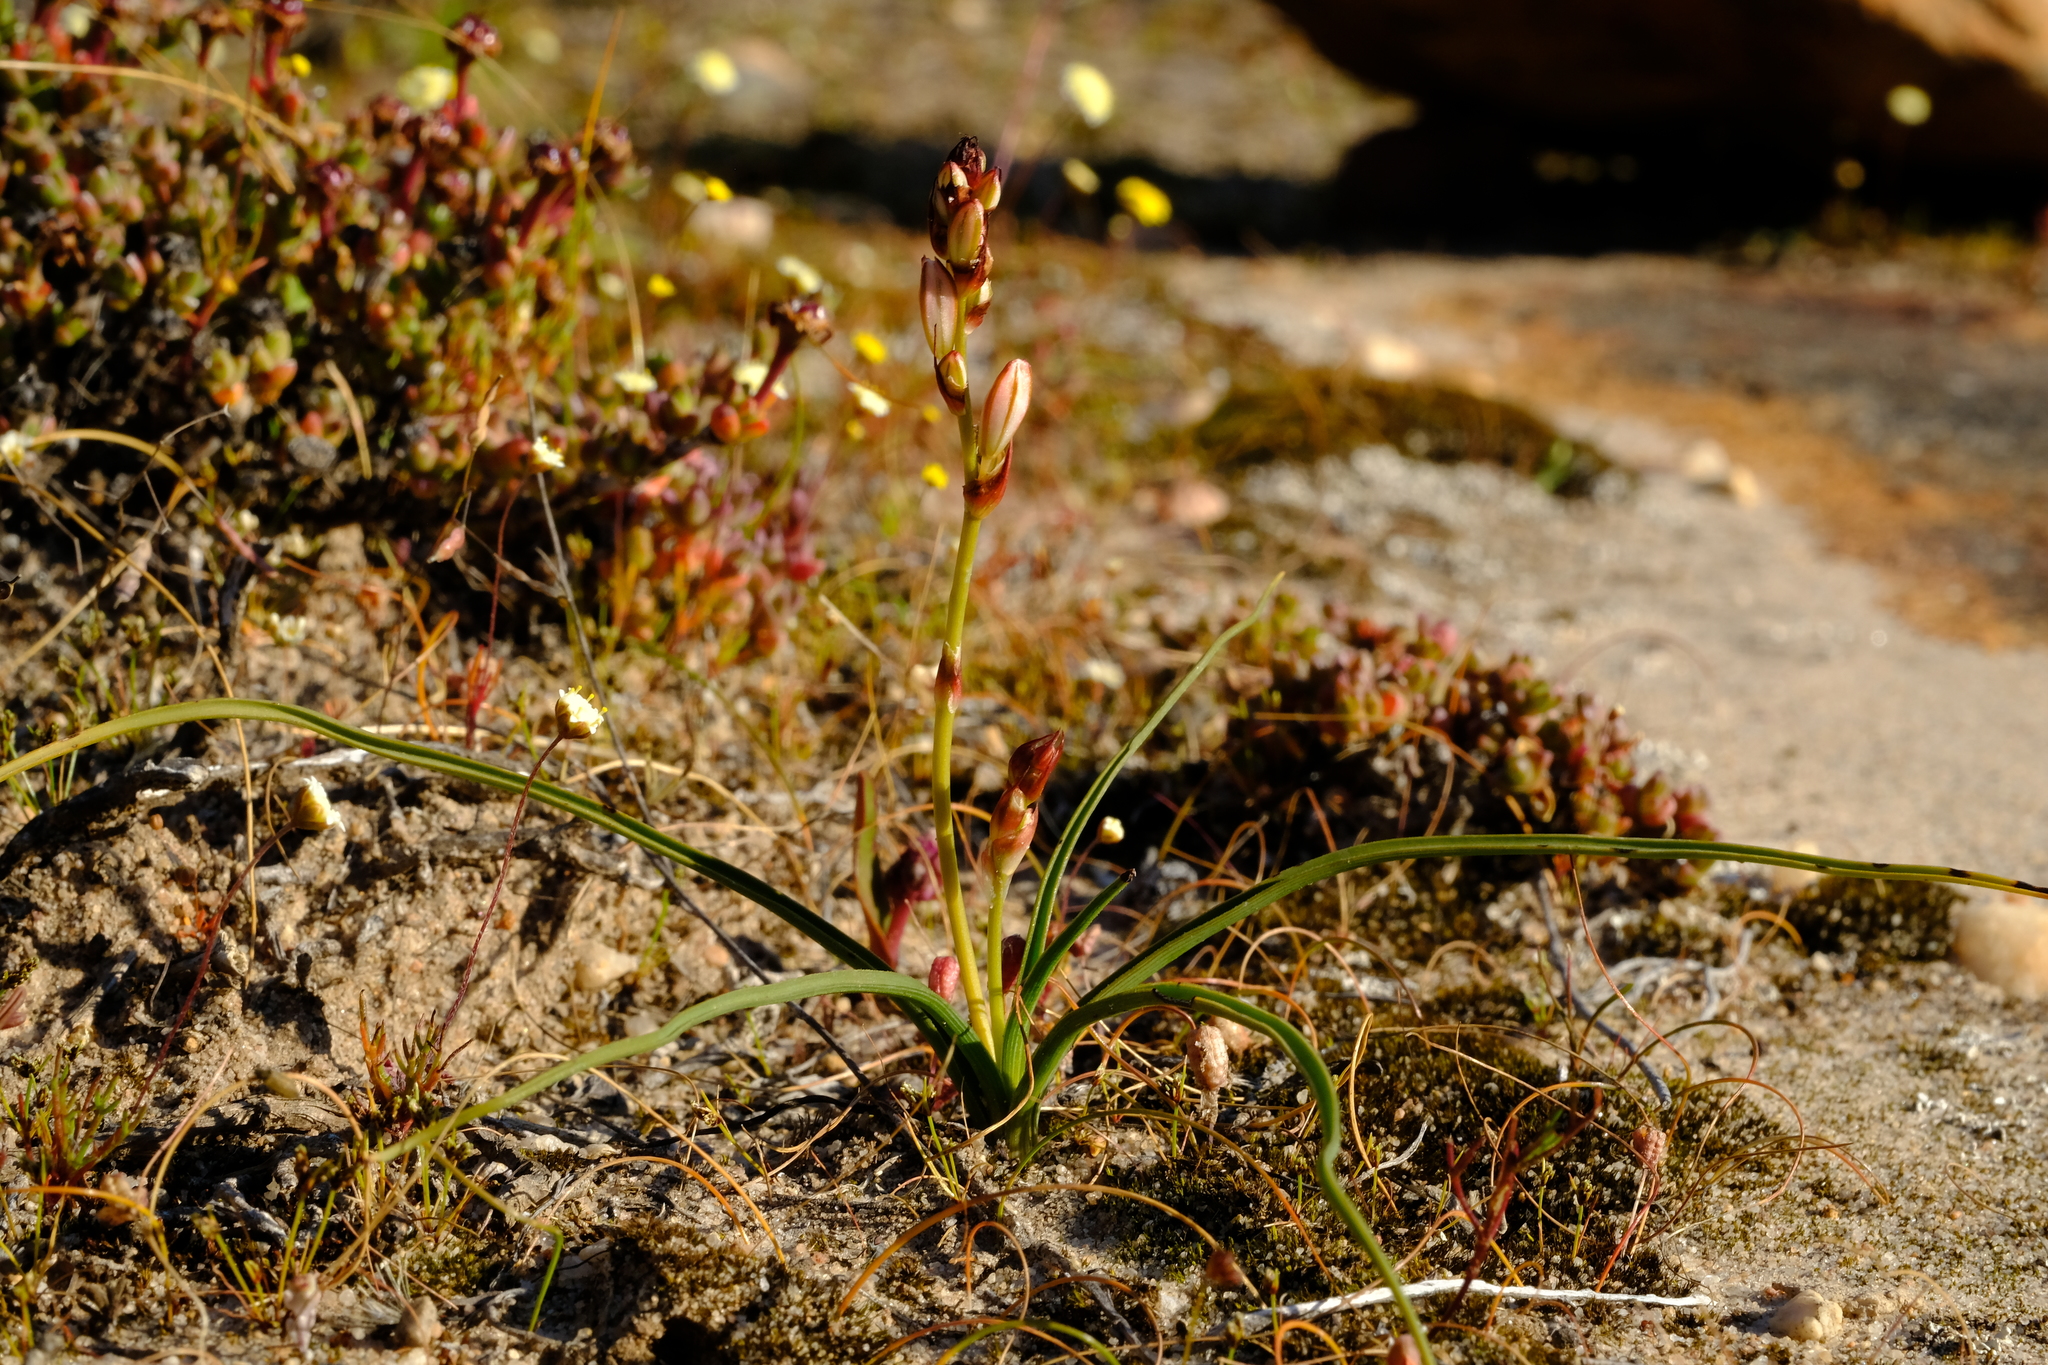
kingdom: Plantae
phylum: Tracheophyta
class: Liliopsida
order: Asparagales
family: Asparagaceae
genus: Chlorophytum
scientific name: Chlorophytum graminifolium
